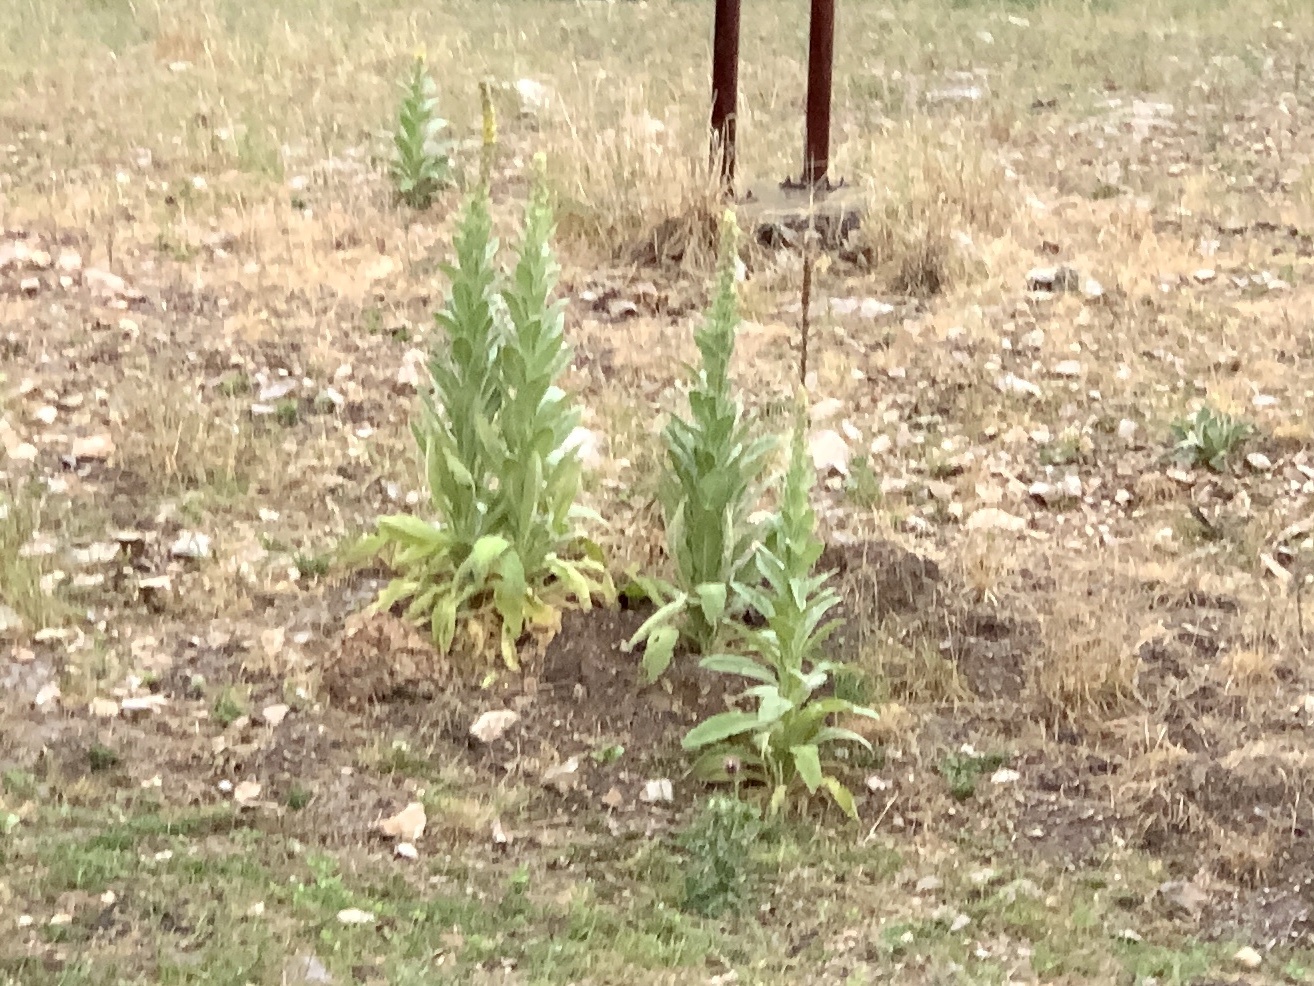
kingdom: Plantae
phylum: Tracheophyta
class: Magnoliopsida
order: Lamiales
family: Scrophulariaceae
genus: Verbascum
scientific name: Verbascum thapsus
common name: Common mullein
